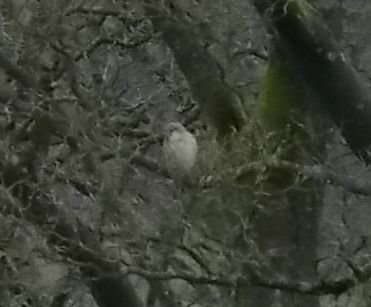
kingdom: Animalia
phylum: Chordata
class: Aves
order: Falconiformes
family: Falconidae
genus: Falco
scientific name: Falco tinnunculus
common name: Common kestrel
